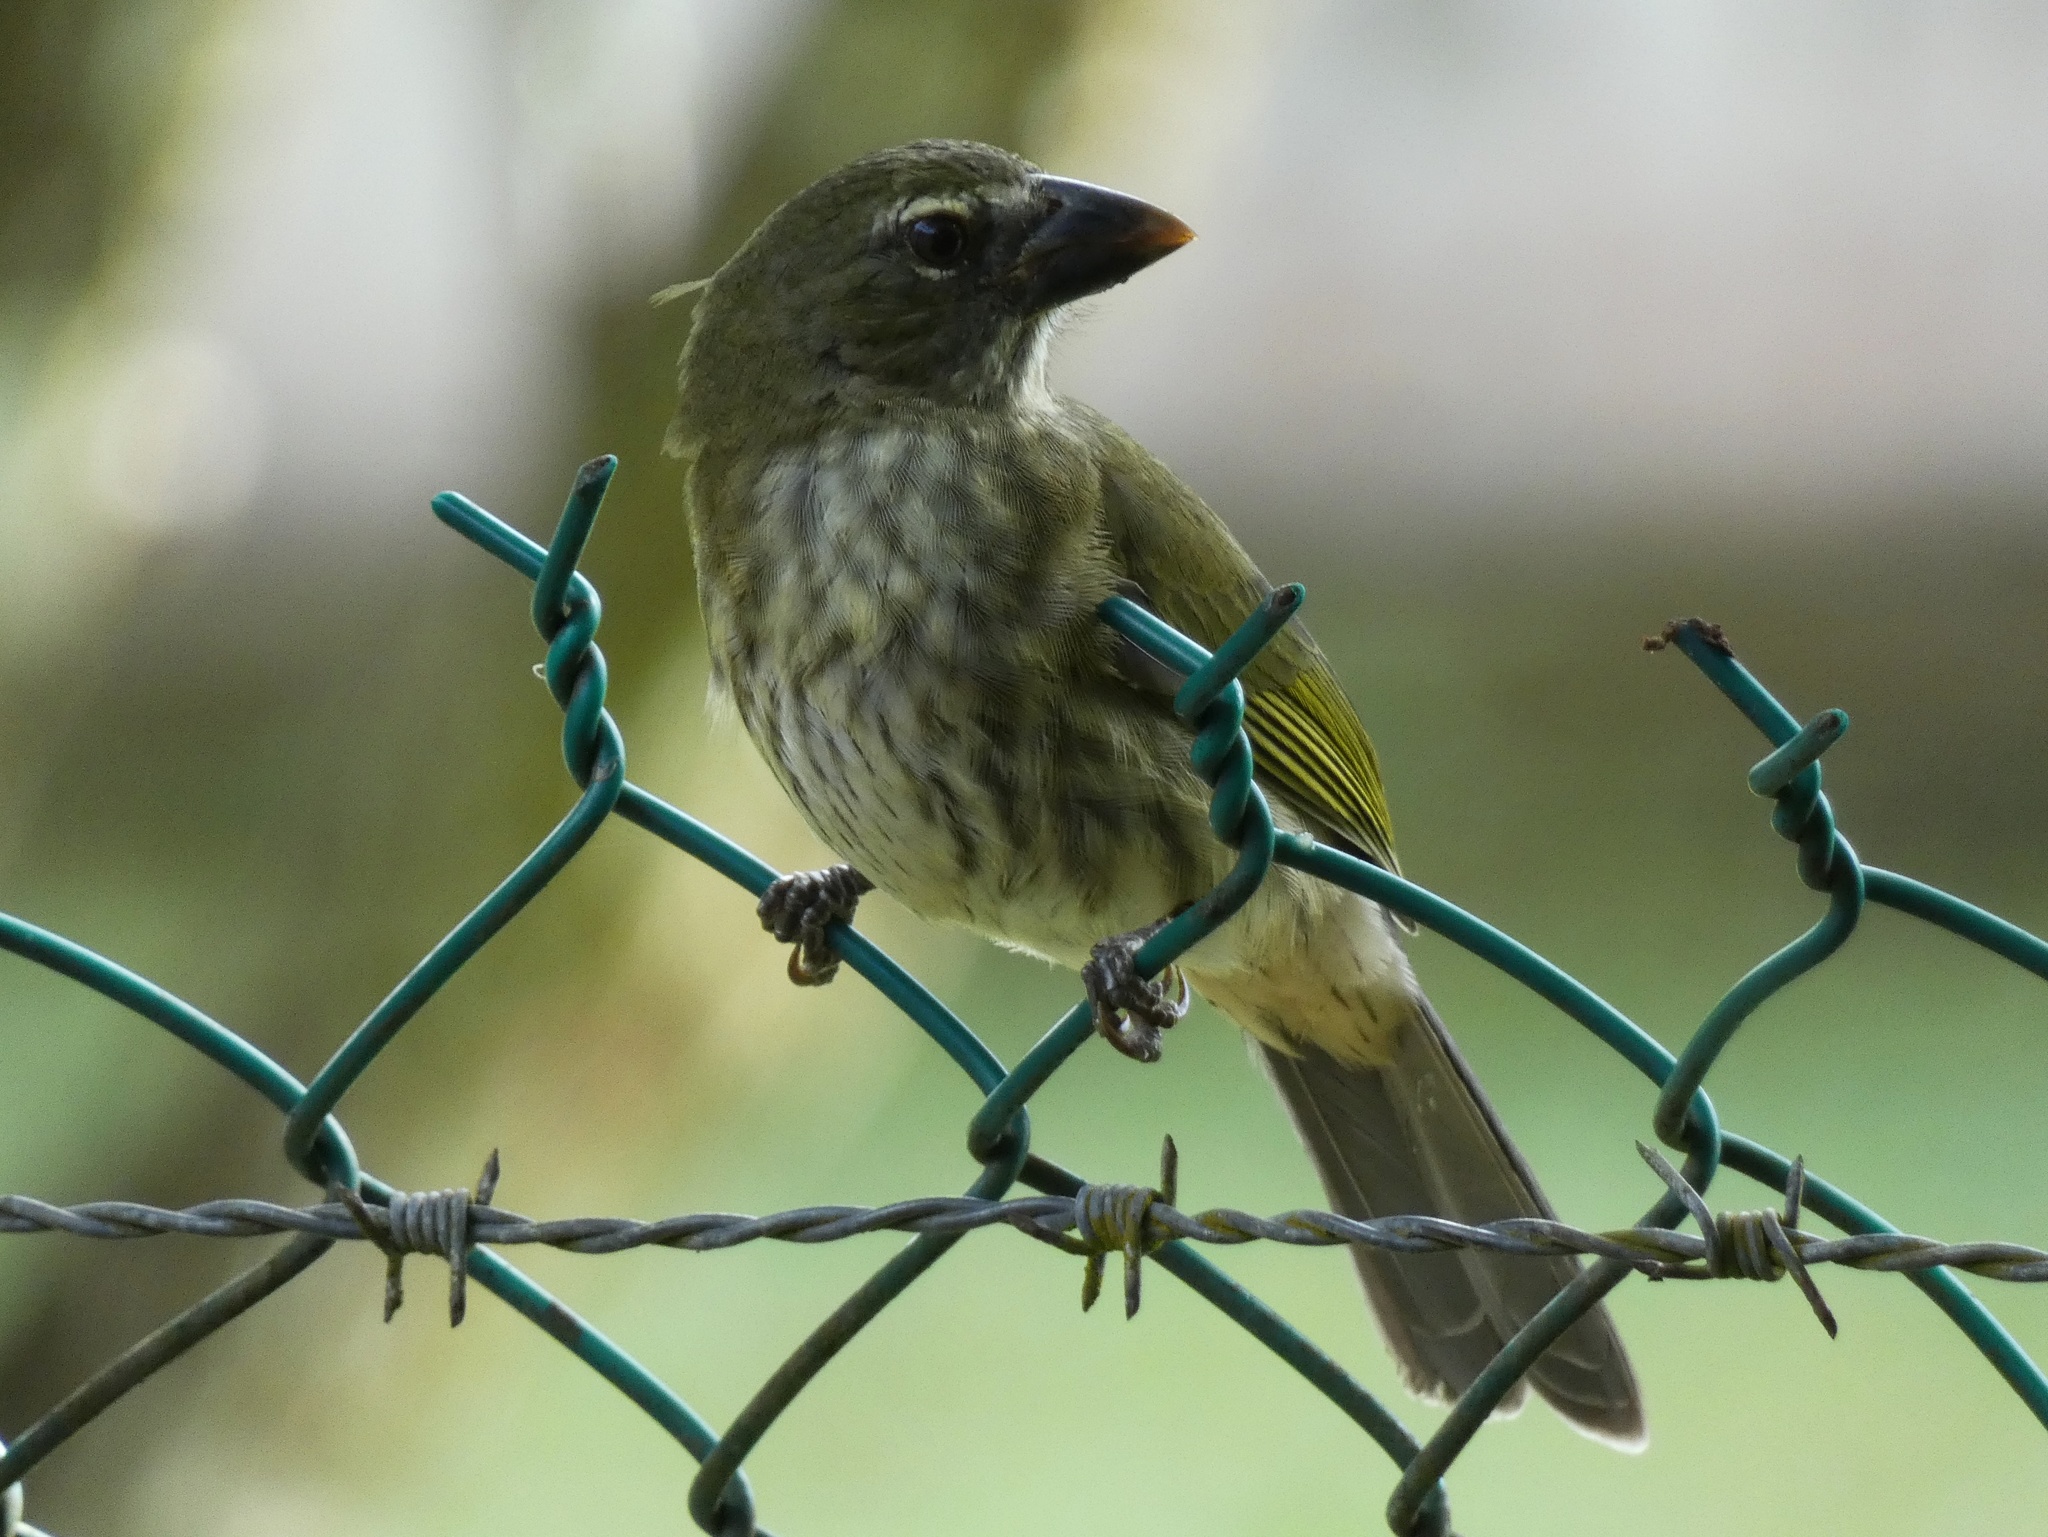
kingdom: Animalia
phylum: Chordata
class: Aves
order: Passeriformes
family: Thraupidae
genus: Saltator
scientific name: Saltator striatipectus
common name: Streaked saltator
